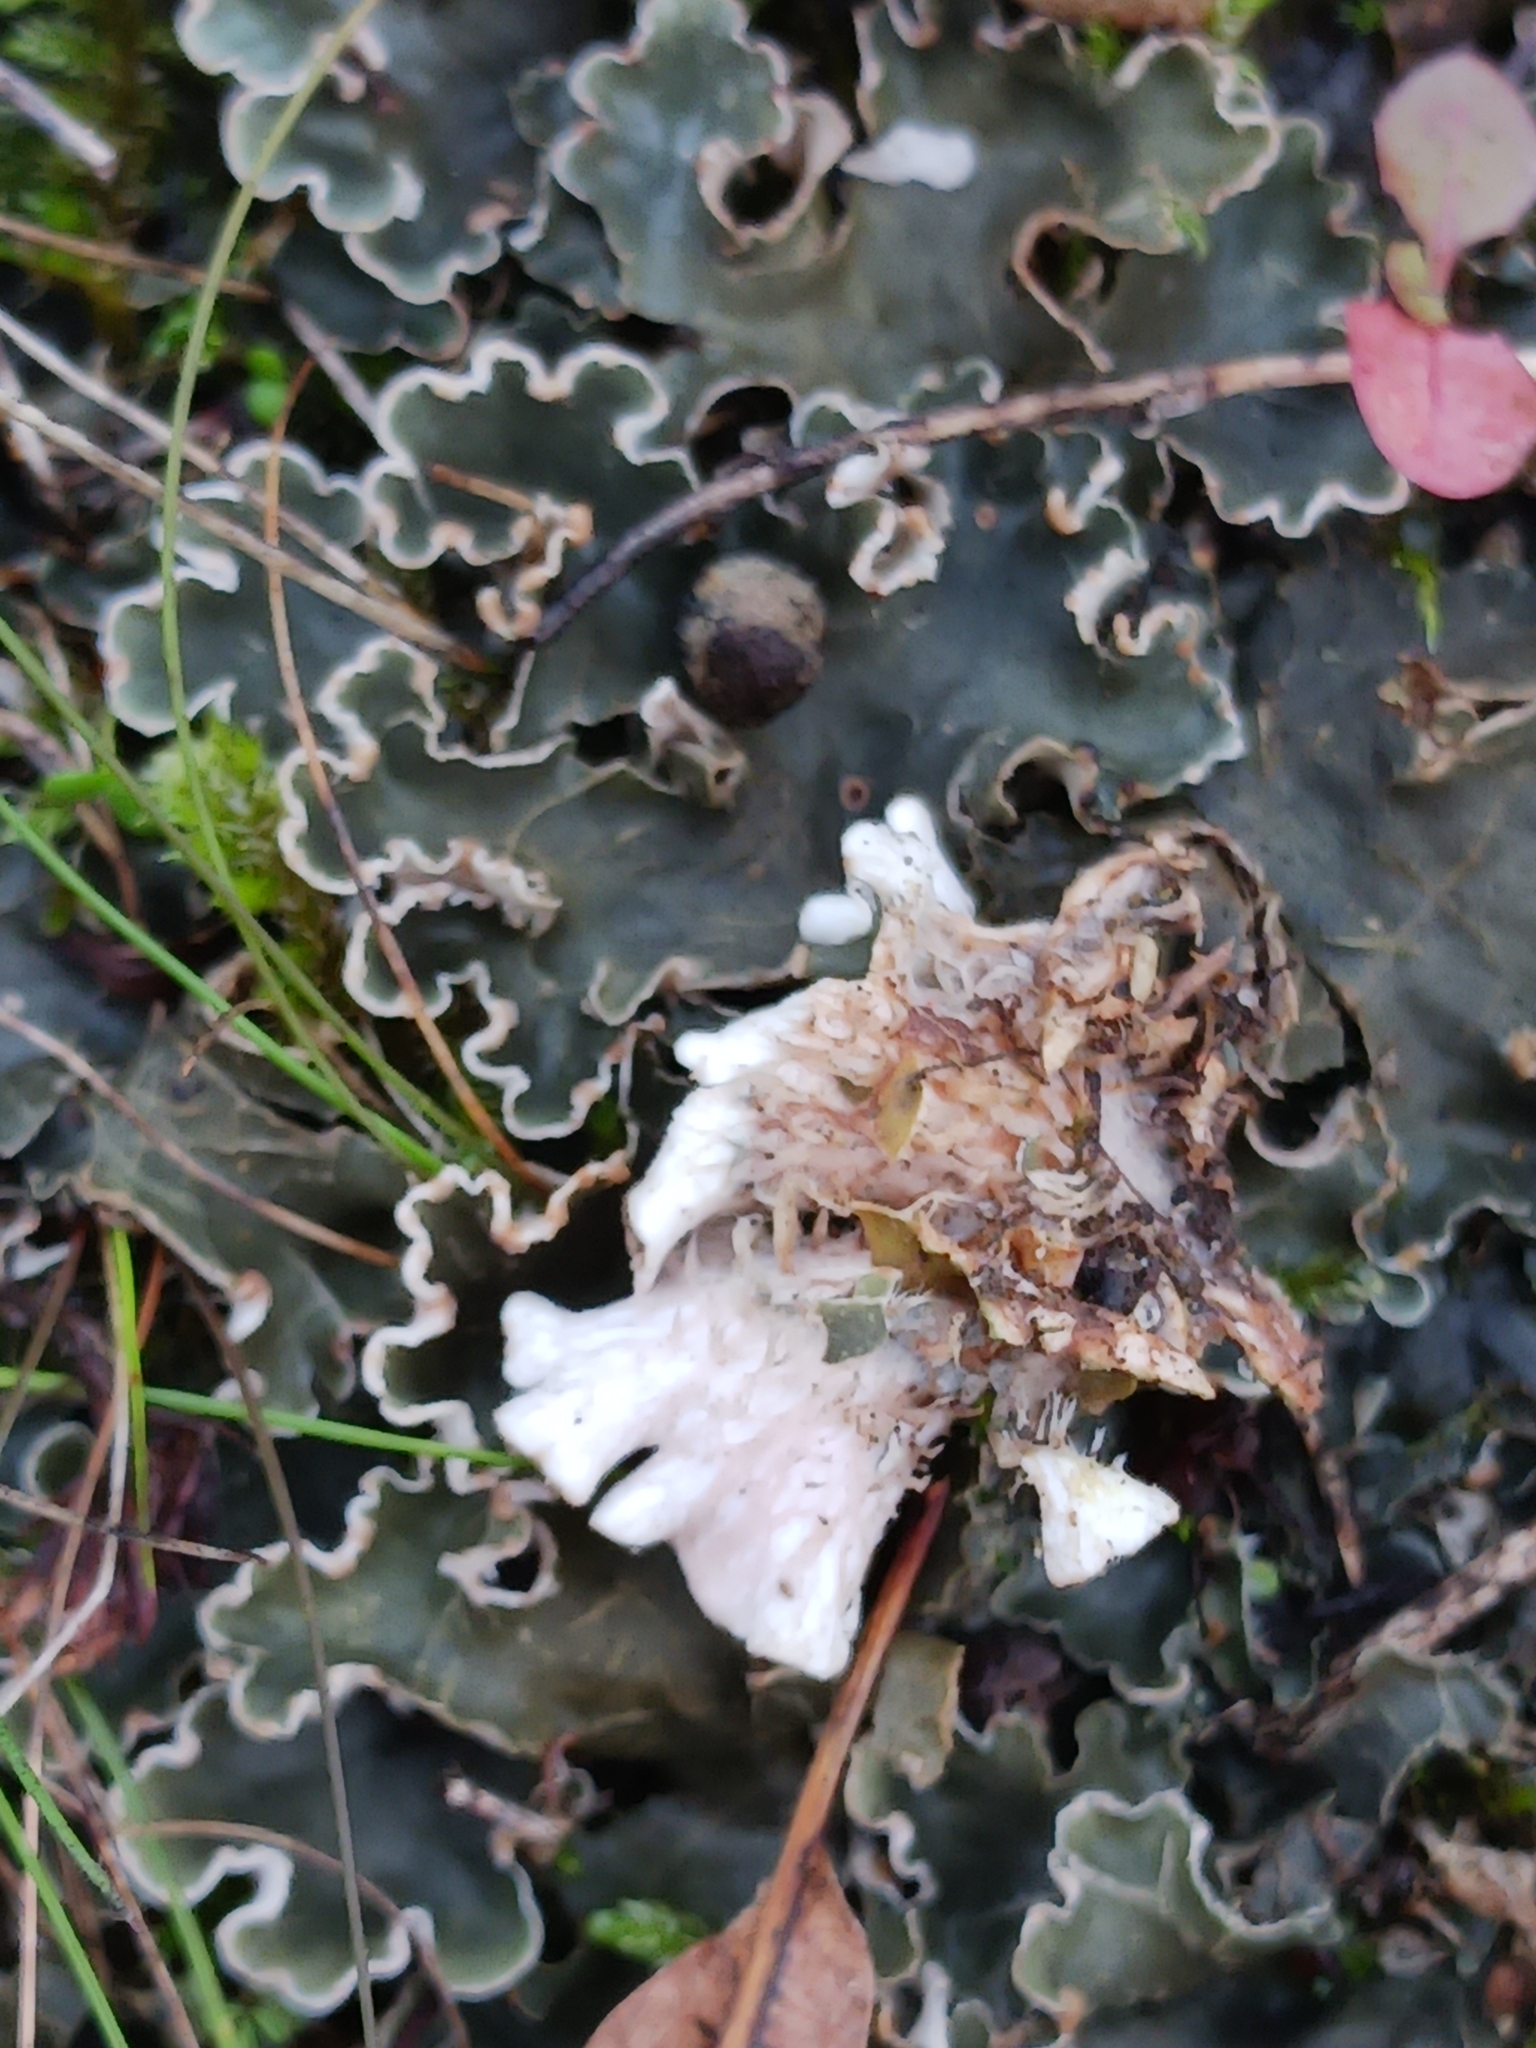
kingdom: Fungi
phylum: Ascomycota
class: Lecanoromycetes
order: Peltigerales
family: Peltigeraceae
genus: Peltigera
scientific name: Peltigera rufescens
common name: Field dog lichen
